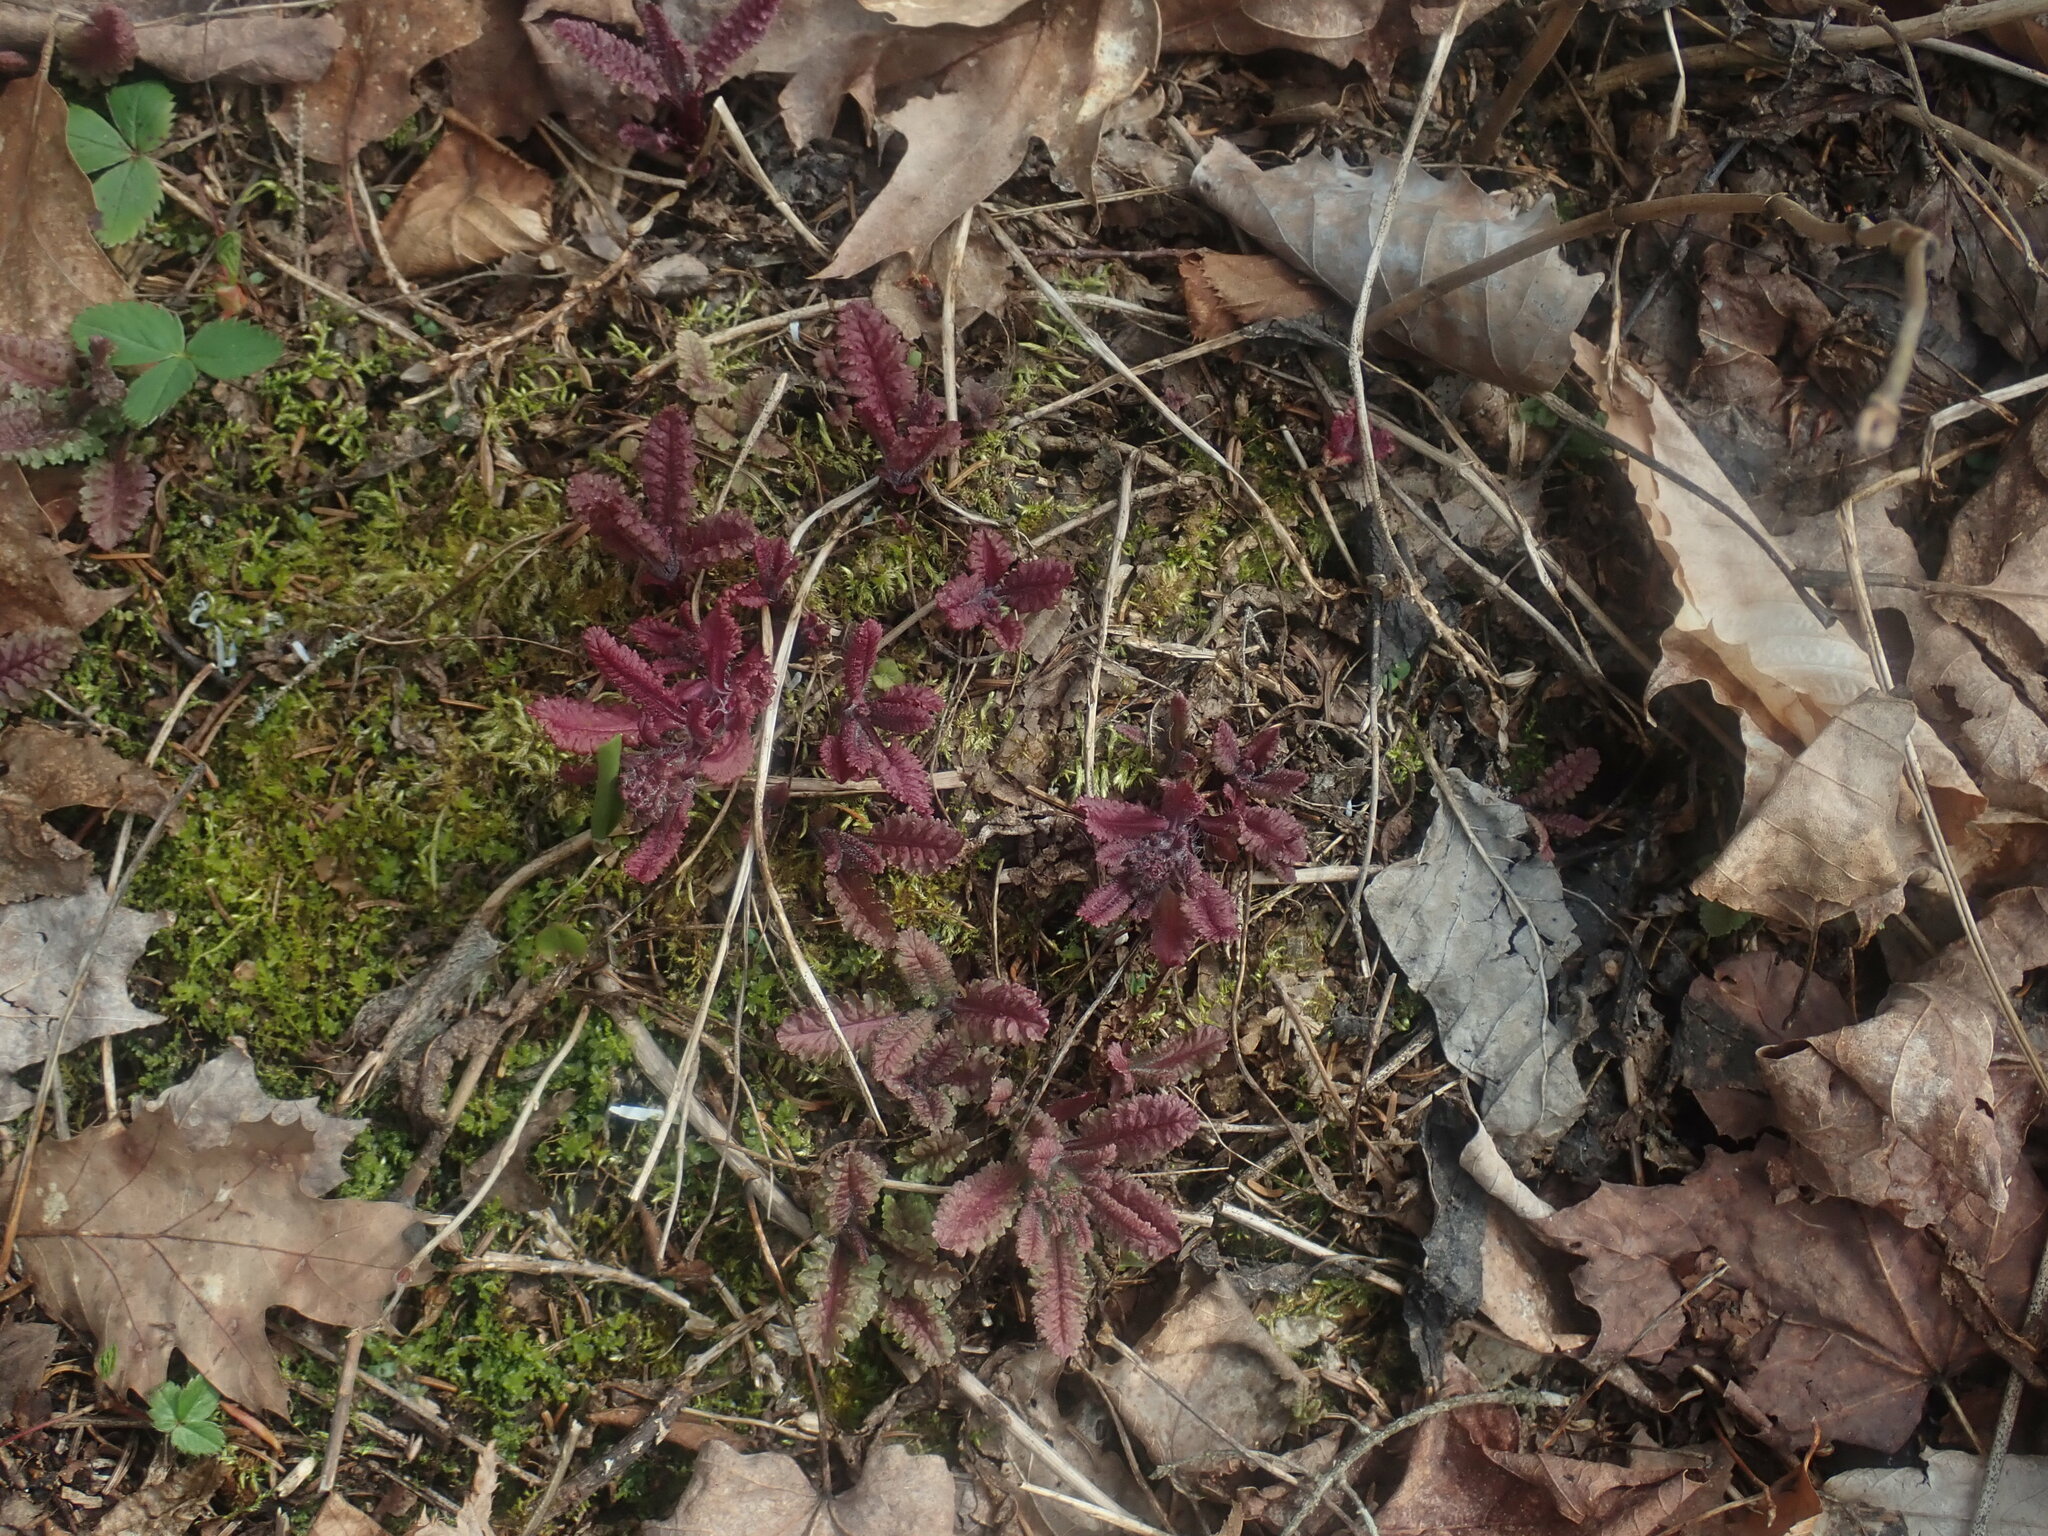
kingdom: Plantae
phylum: Tracheophyta
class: Magnoliopsida
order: Lamiales
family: Orobanchaceae
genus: Pedicularis
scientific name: Pedicularis canadensis
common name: Early lousewort
